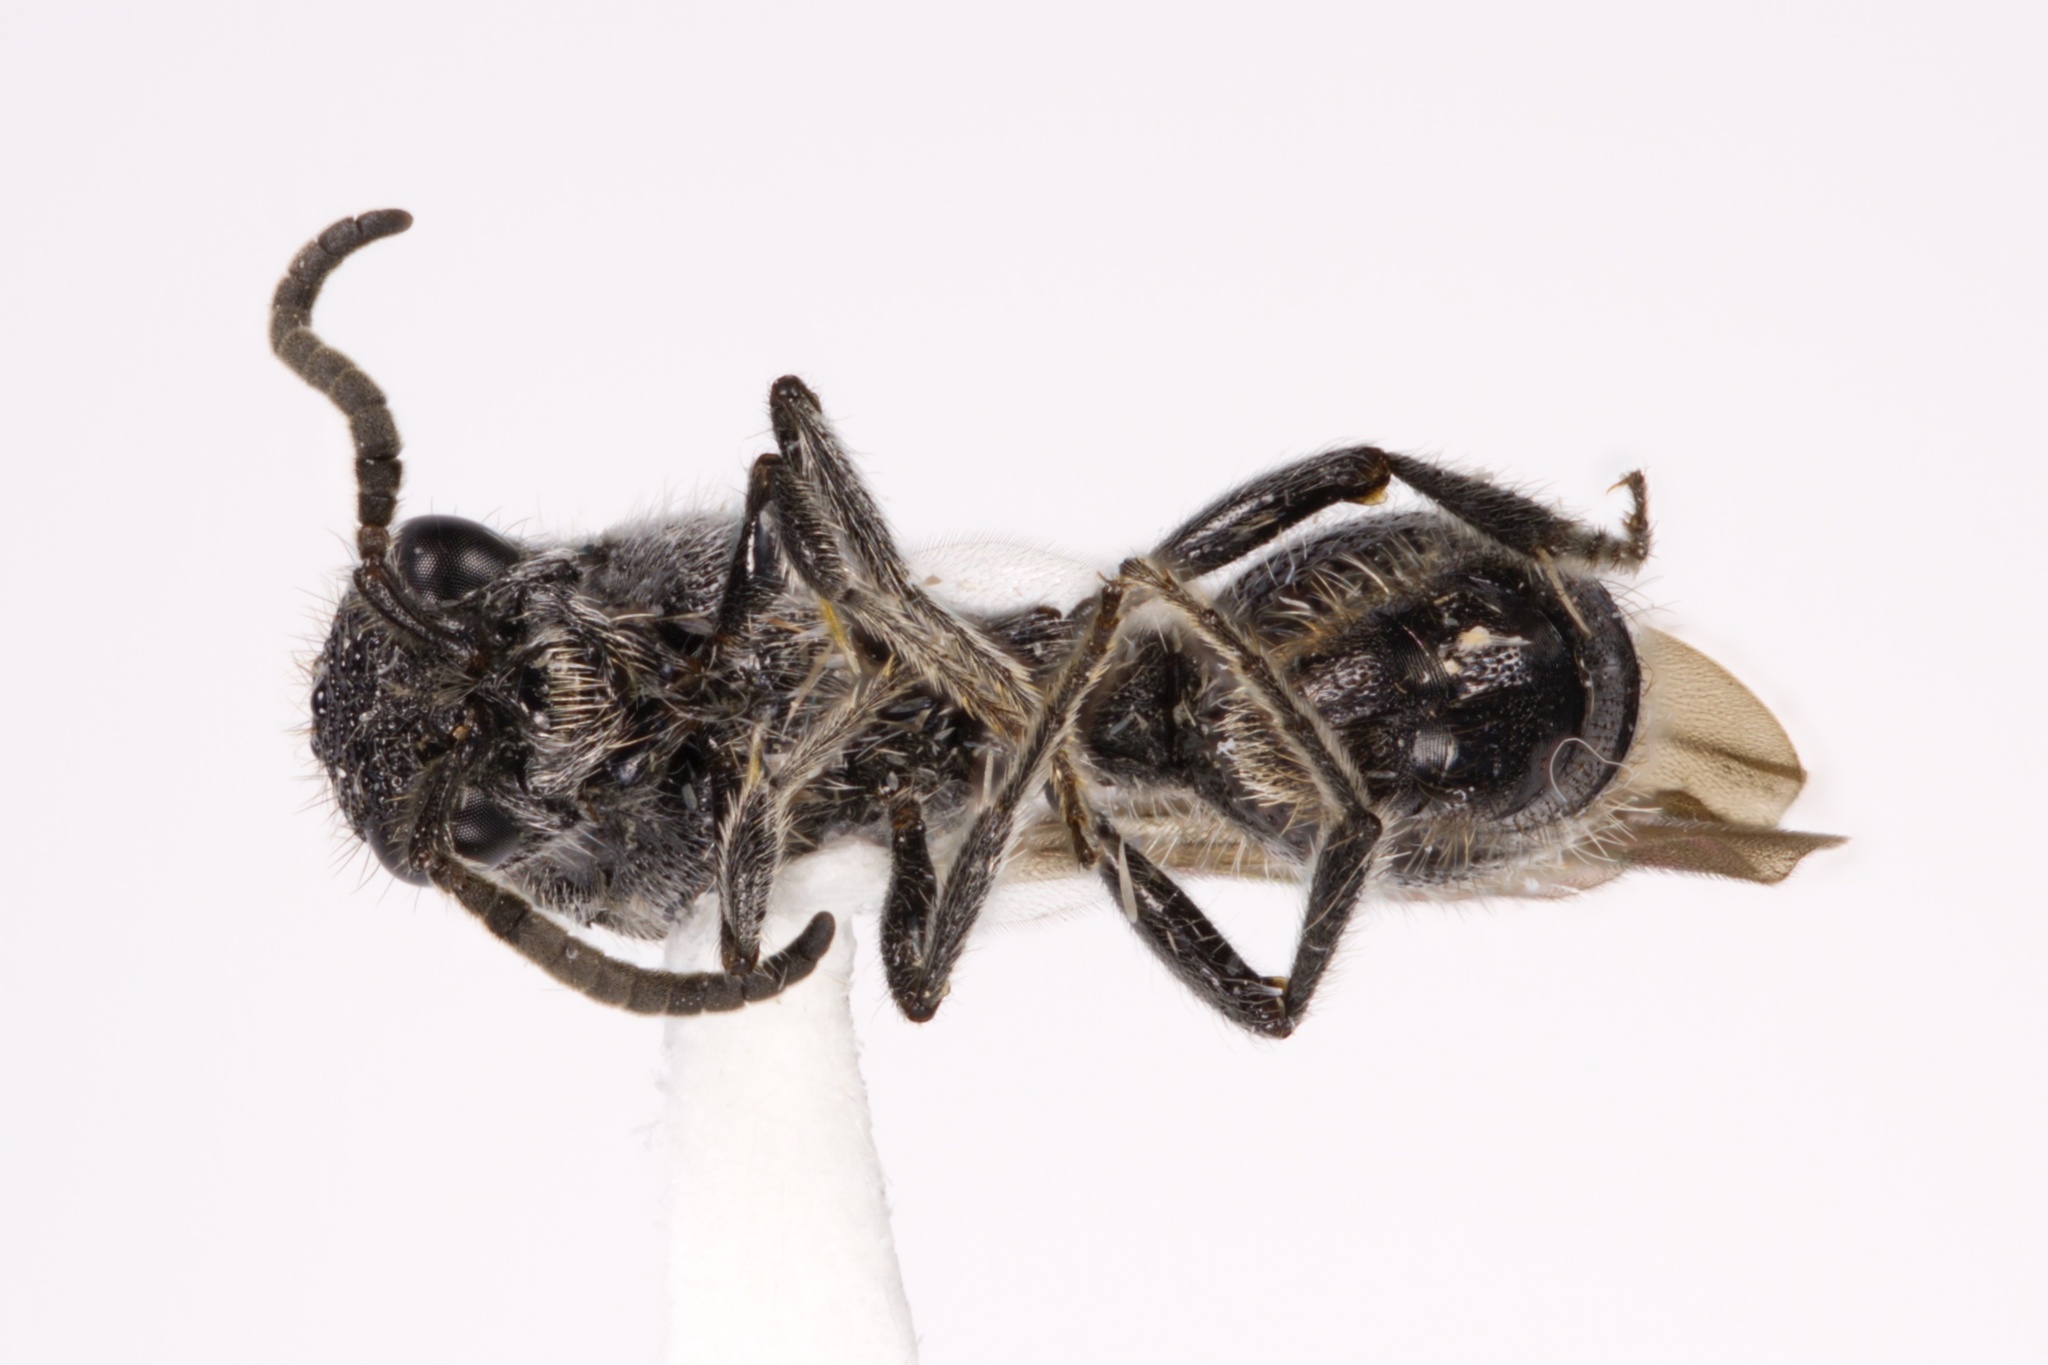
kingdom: Animalia
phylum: Arthropoda
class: Insecta
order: Hymenoptera
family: Mutillidae
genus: Ephuta
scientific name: Ephuta
